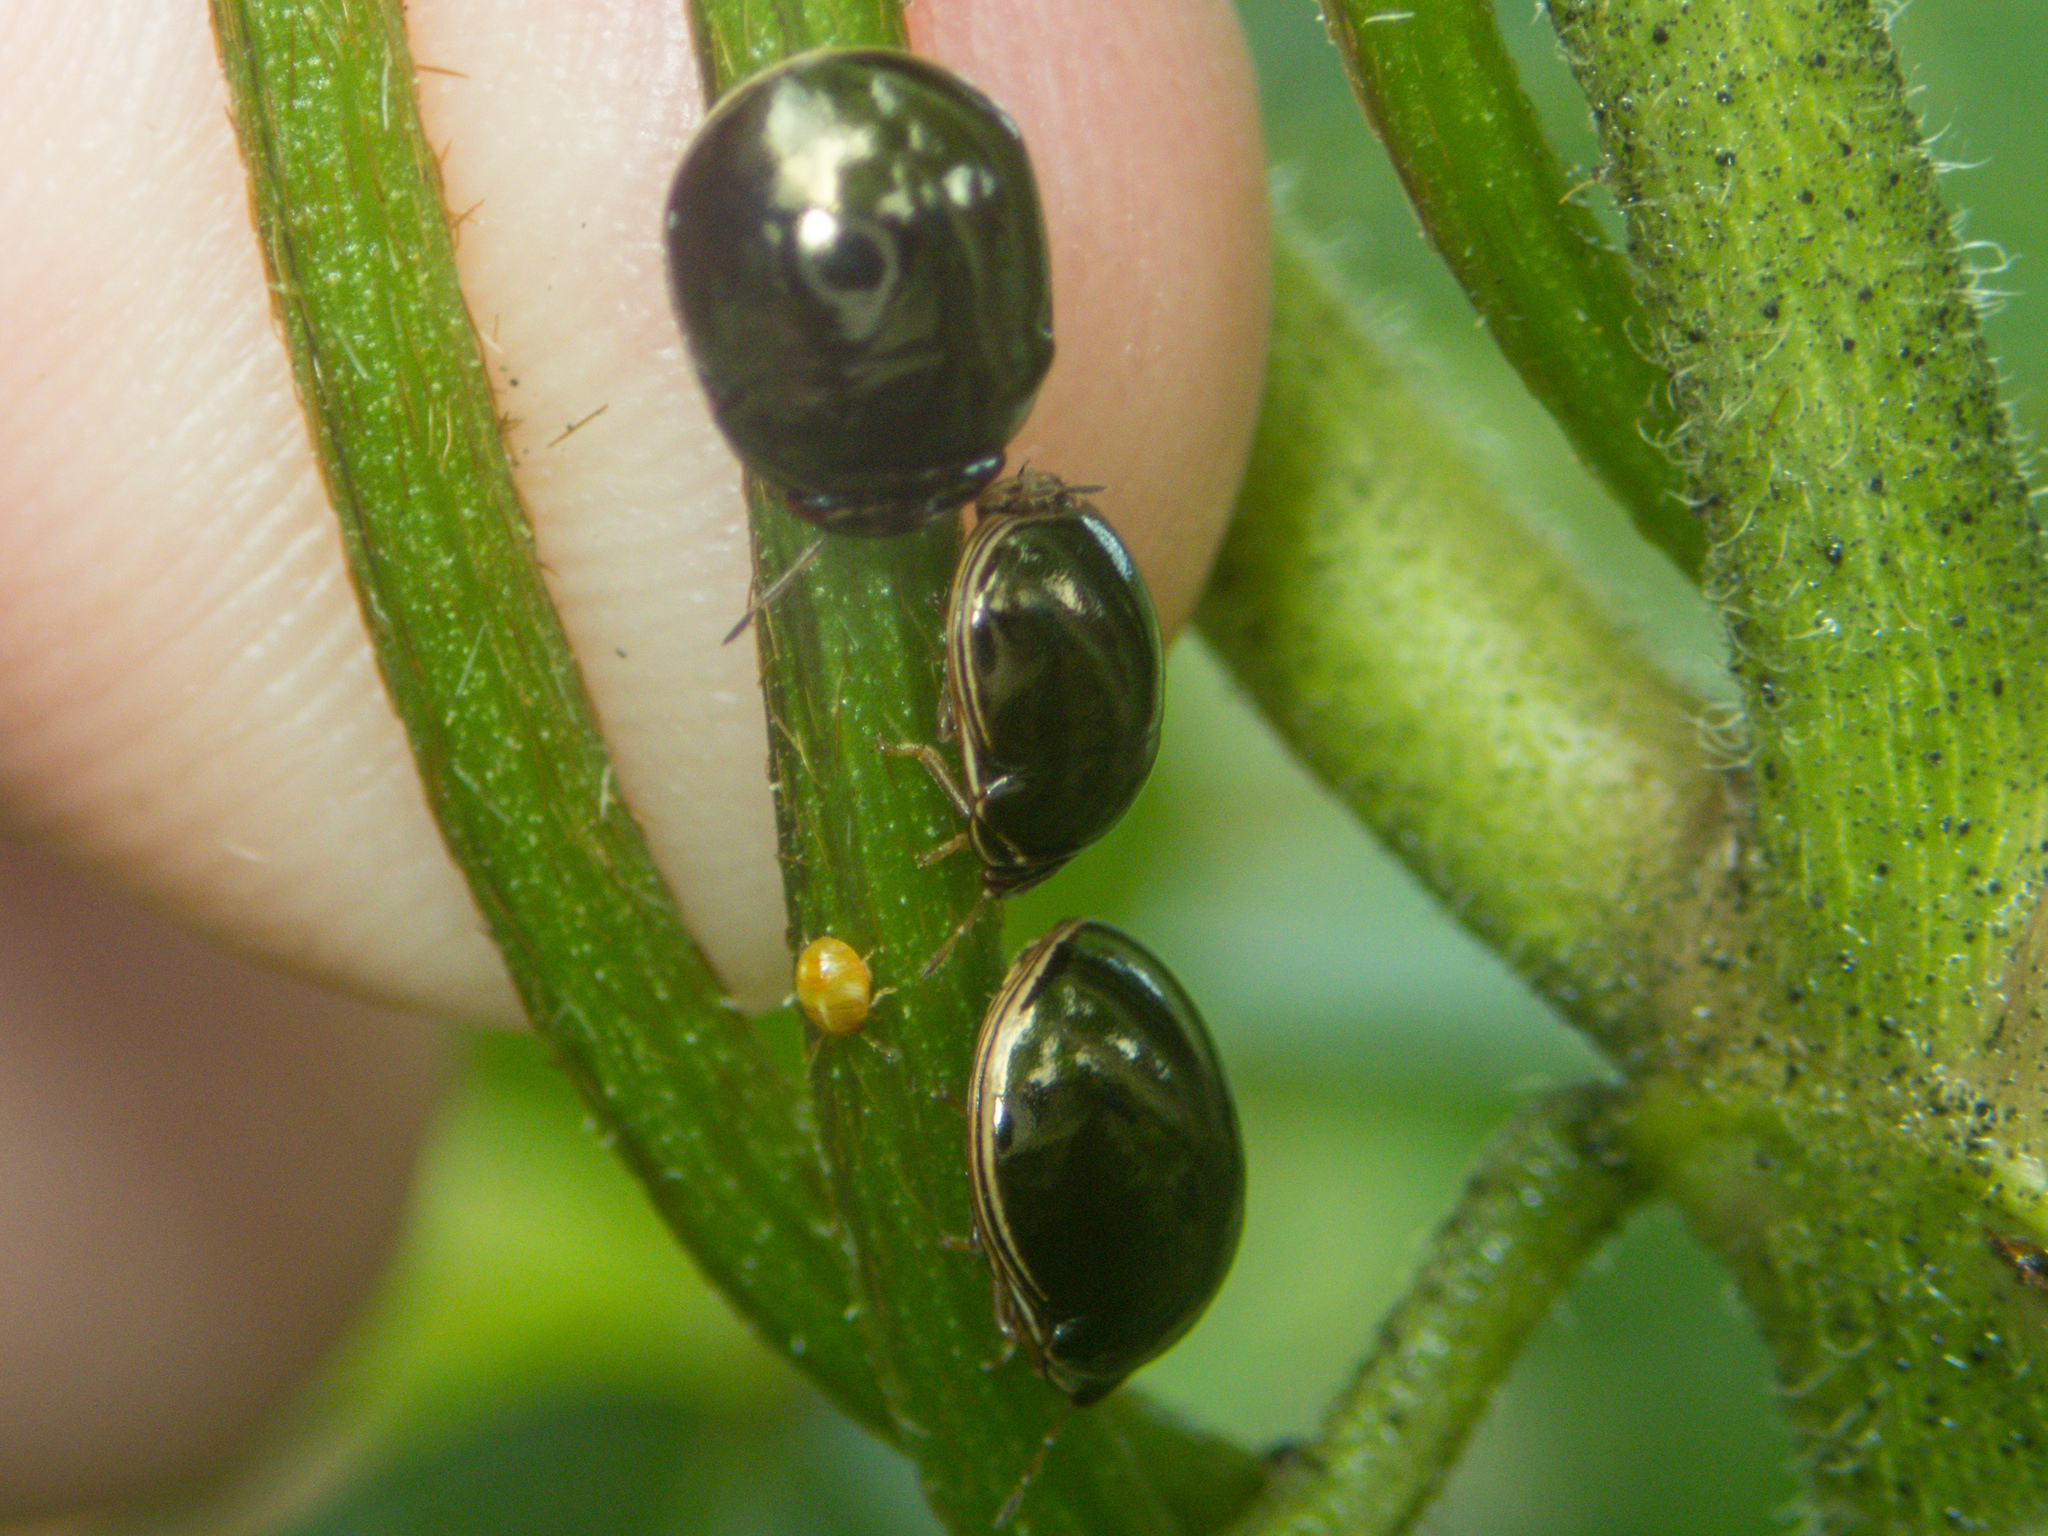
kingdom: Animalia
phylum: Arthropoda
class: Insecta
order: Hemiptera
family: Plataspidae
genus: Brachyplatys
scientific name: Brachyplatys subaeneus
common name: Black bean bug
